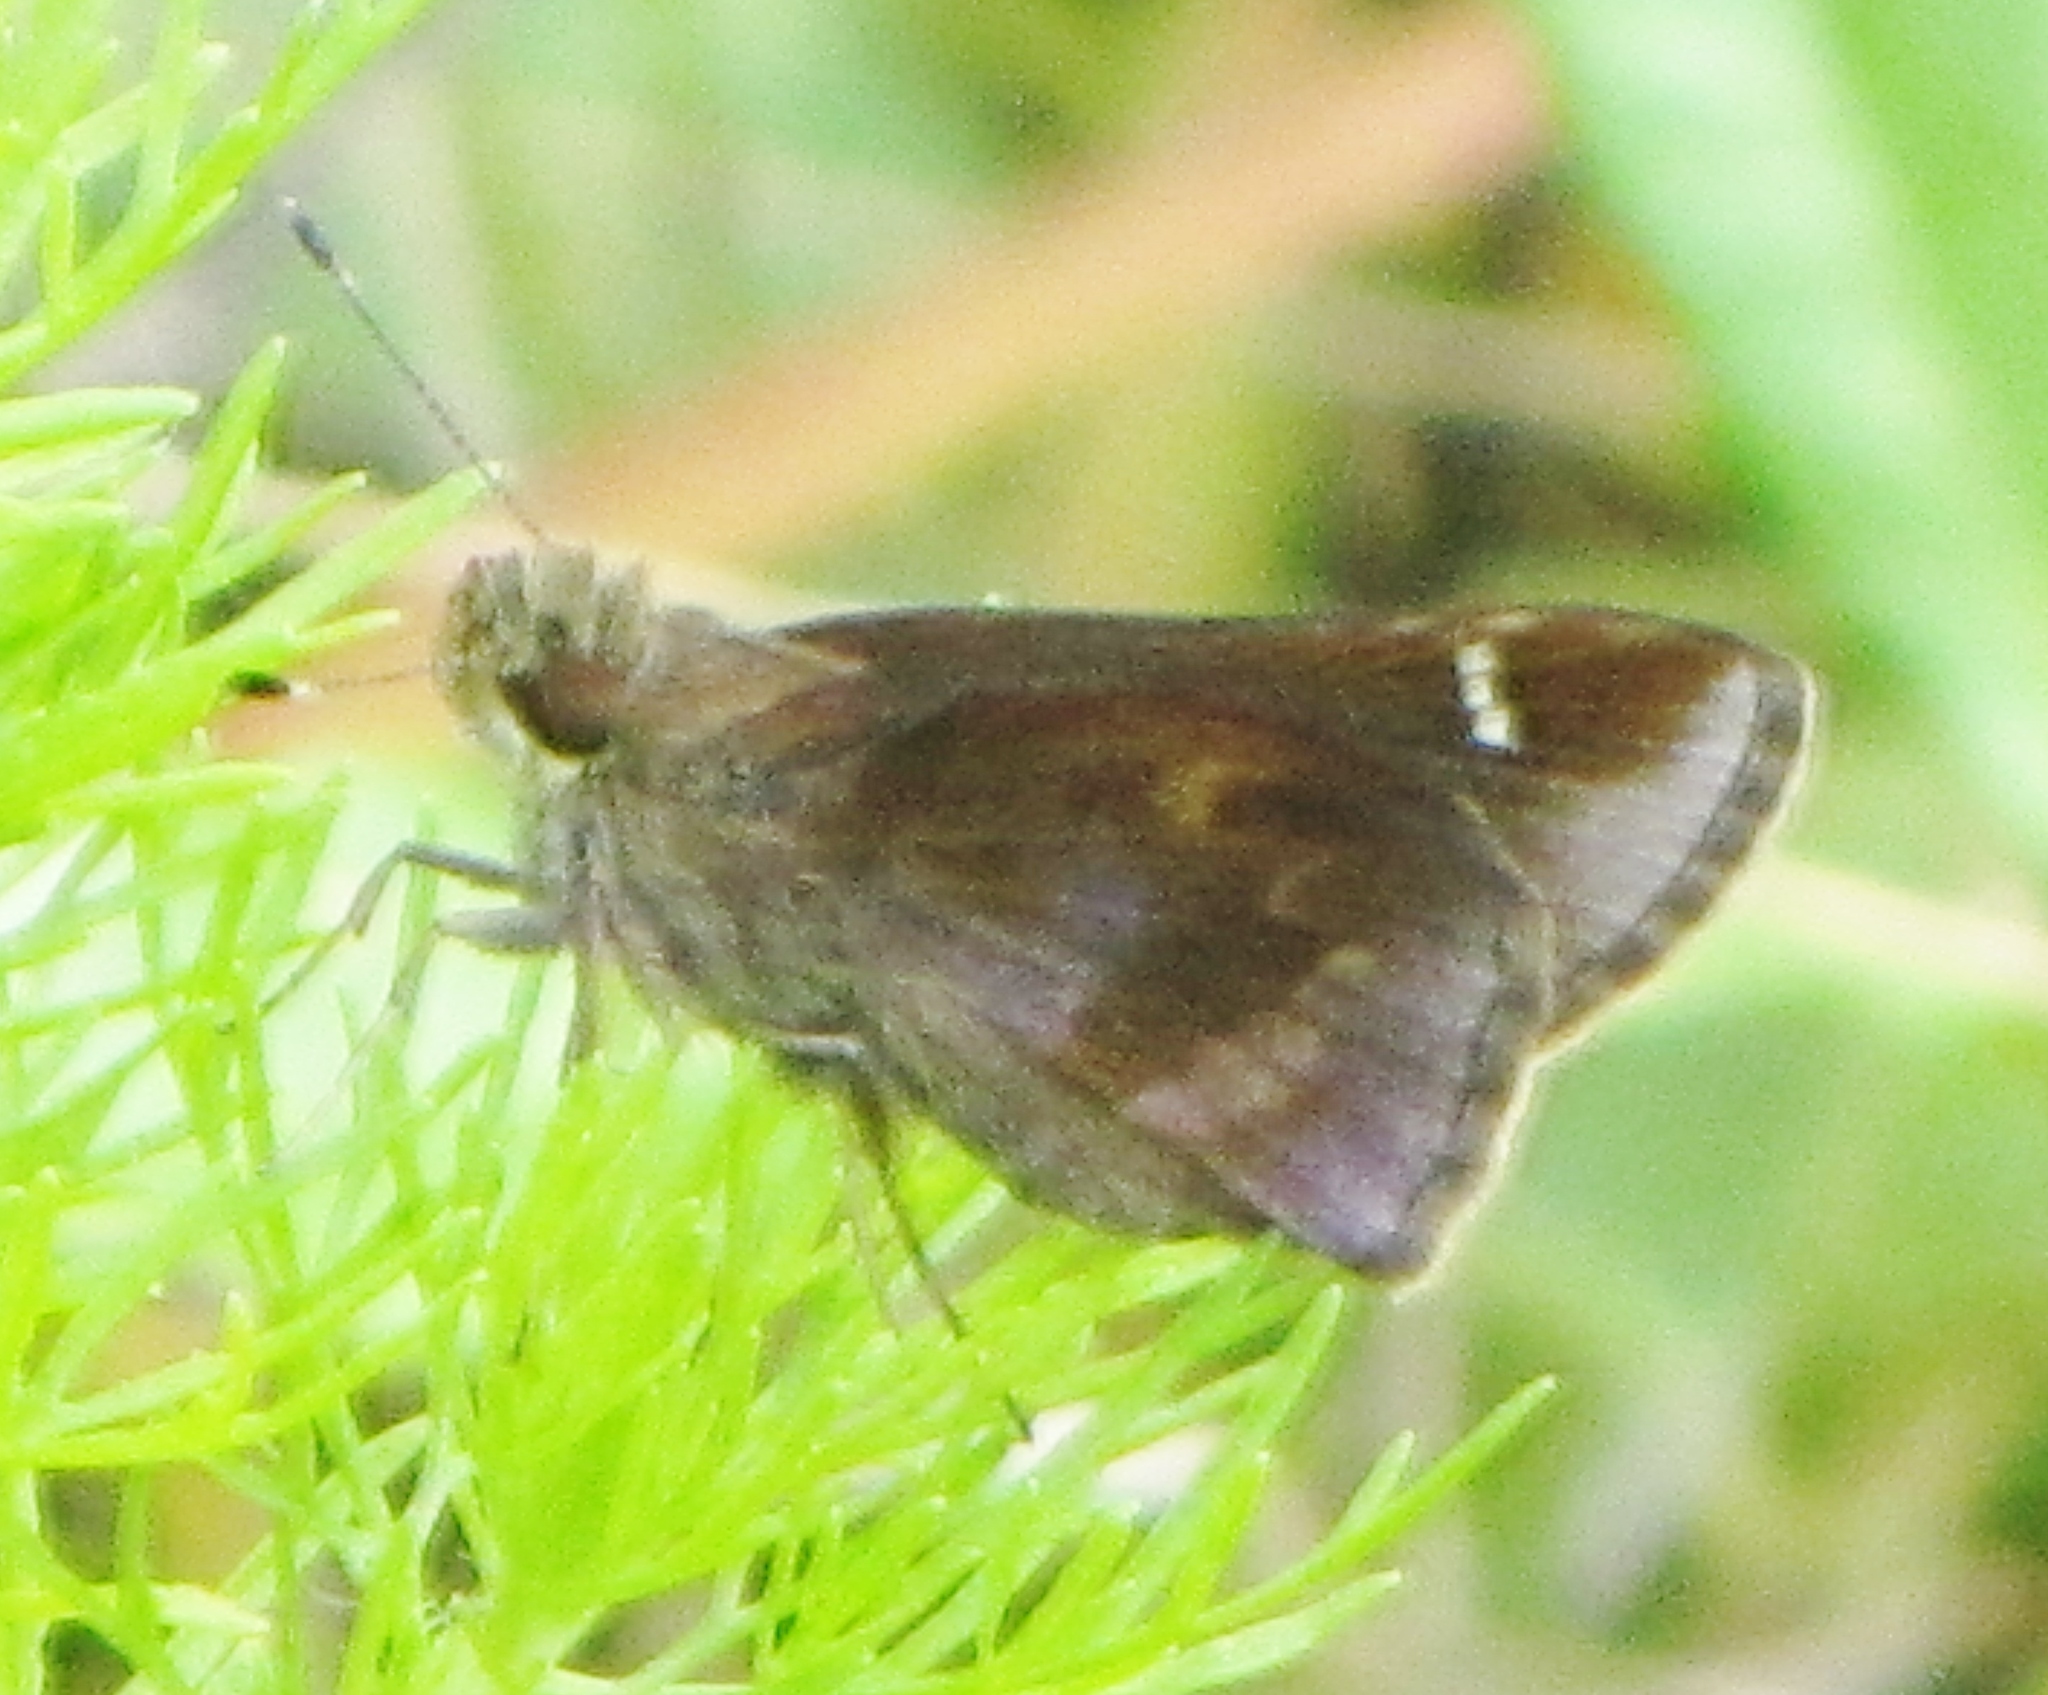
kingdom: Animalia
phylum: Arthropoda
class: Insecta
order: Lepidoptera
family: Hesperiidae
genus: Lerema
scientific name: Lerema accius
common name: Clouded skipper
